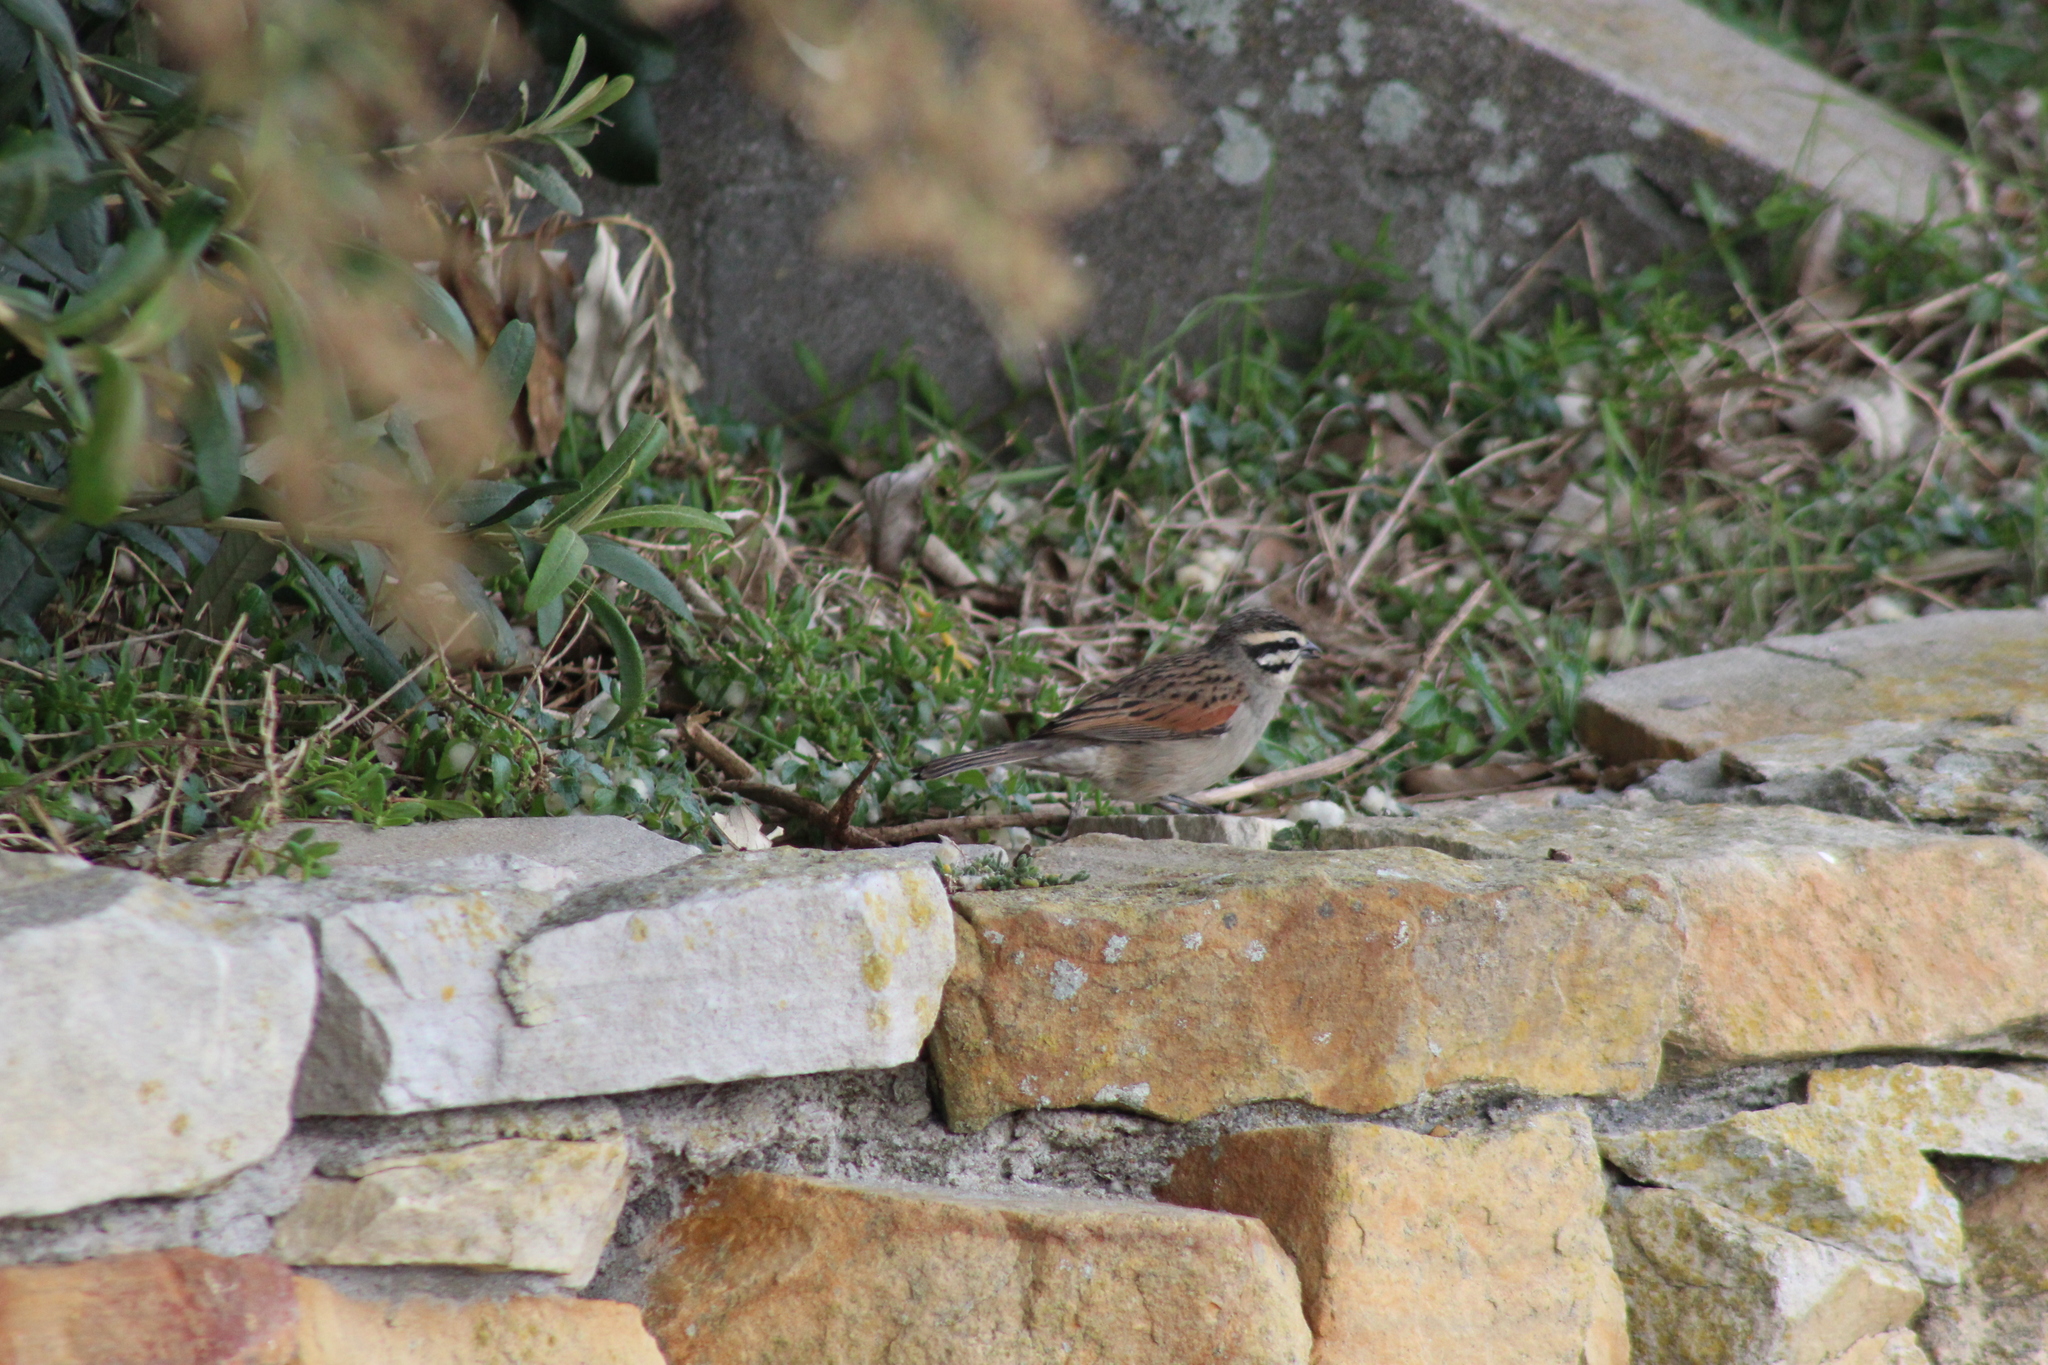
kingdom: Animalia
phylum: Chordata
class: Aves
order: Passeriformes
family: Emberizidae
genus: Emberiza
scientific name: Emberiza capensis
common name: Cape bunting
